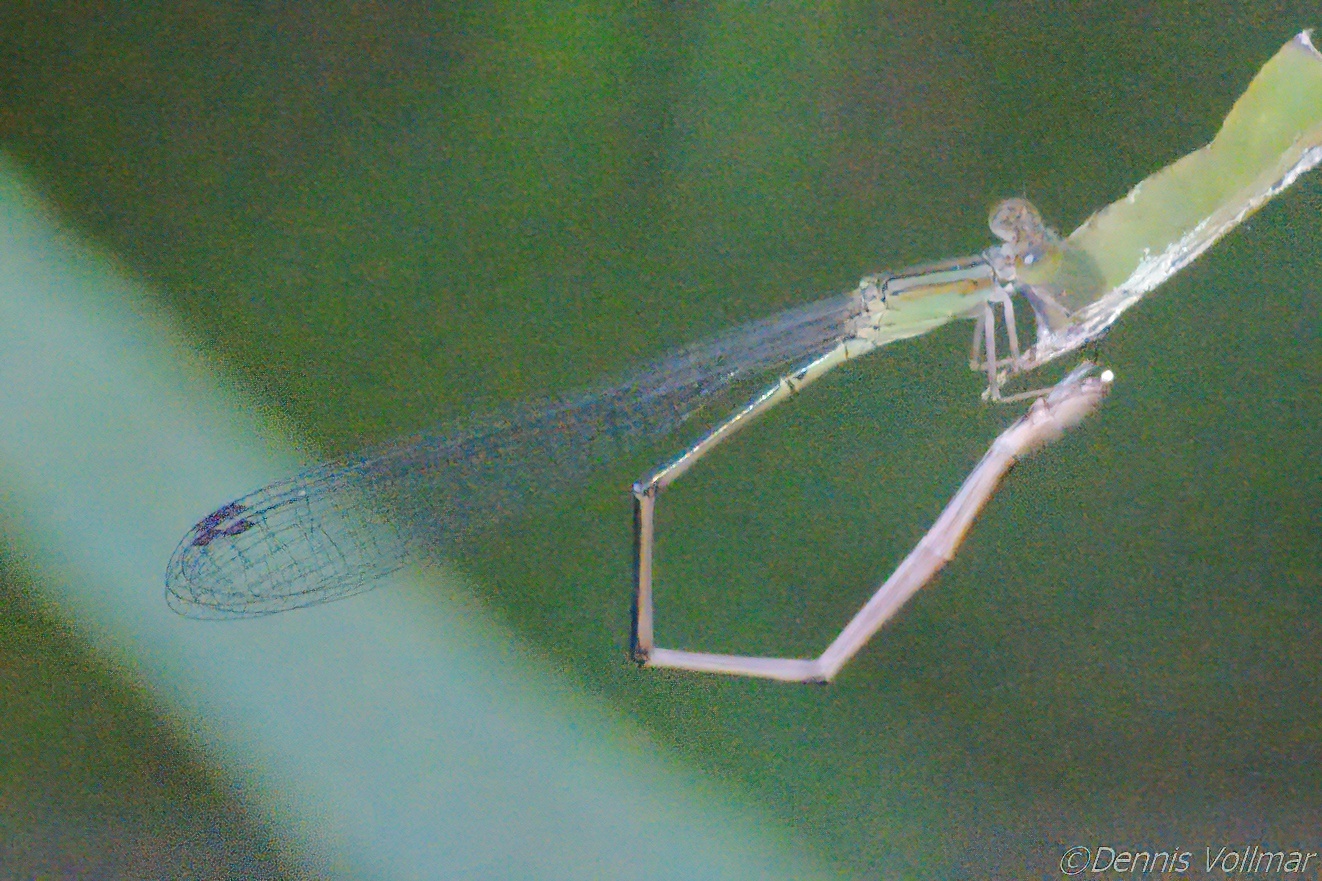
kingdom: Animalia
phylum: Arthropoda
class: Insecta
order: Odonata
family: Coenagrionidae
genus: Leptobasis
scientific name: Leptobasis lucifer
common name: Lucifer swampdamsel
